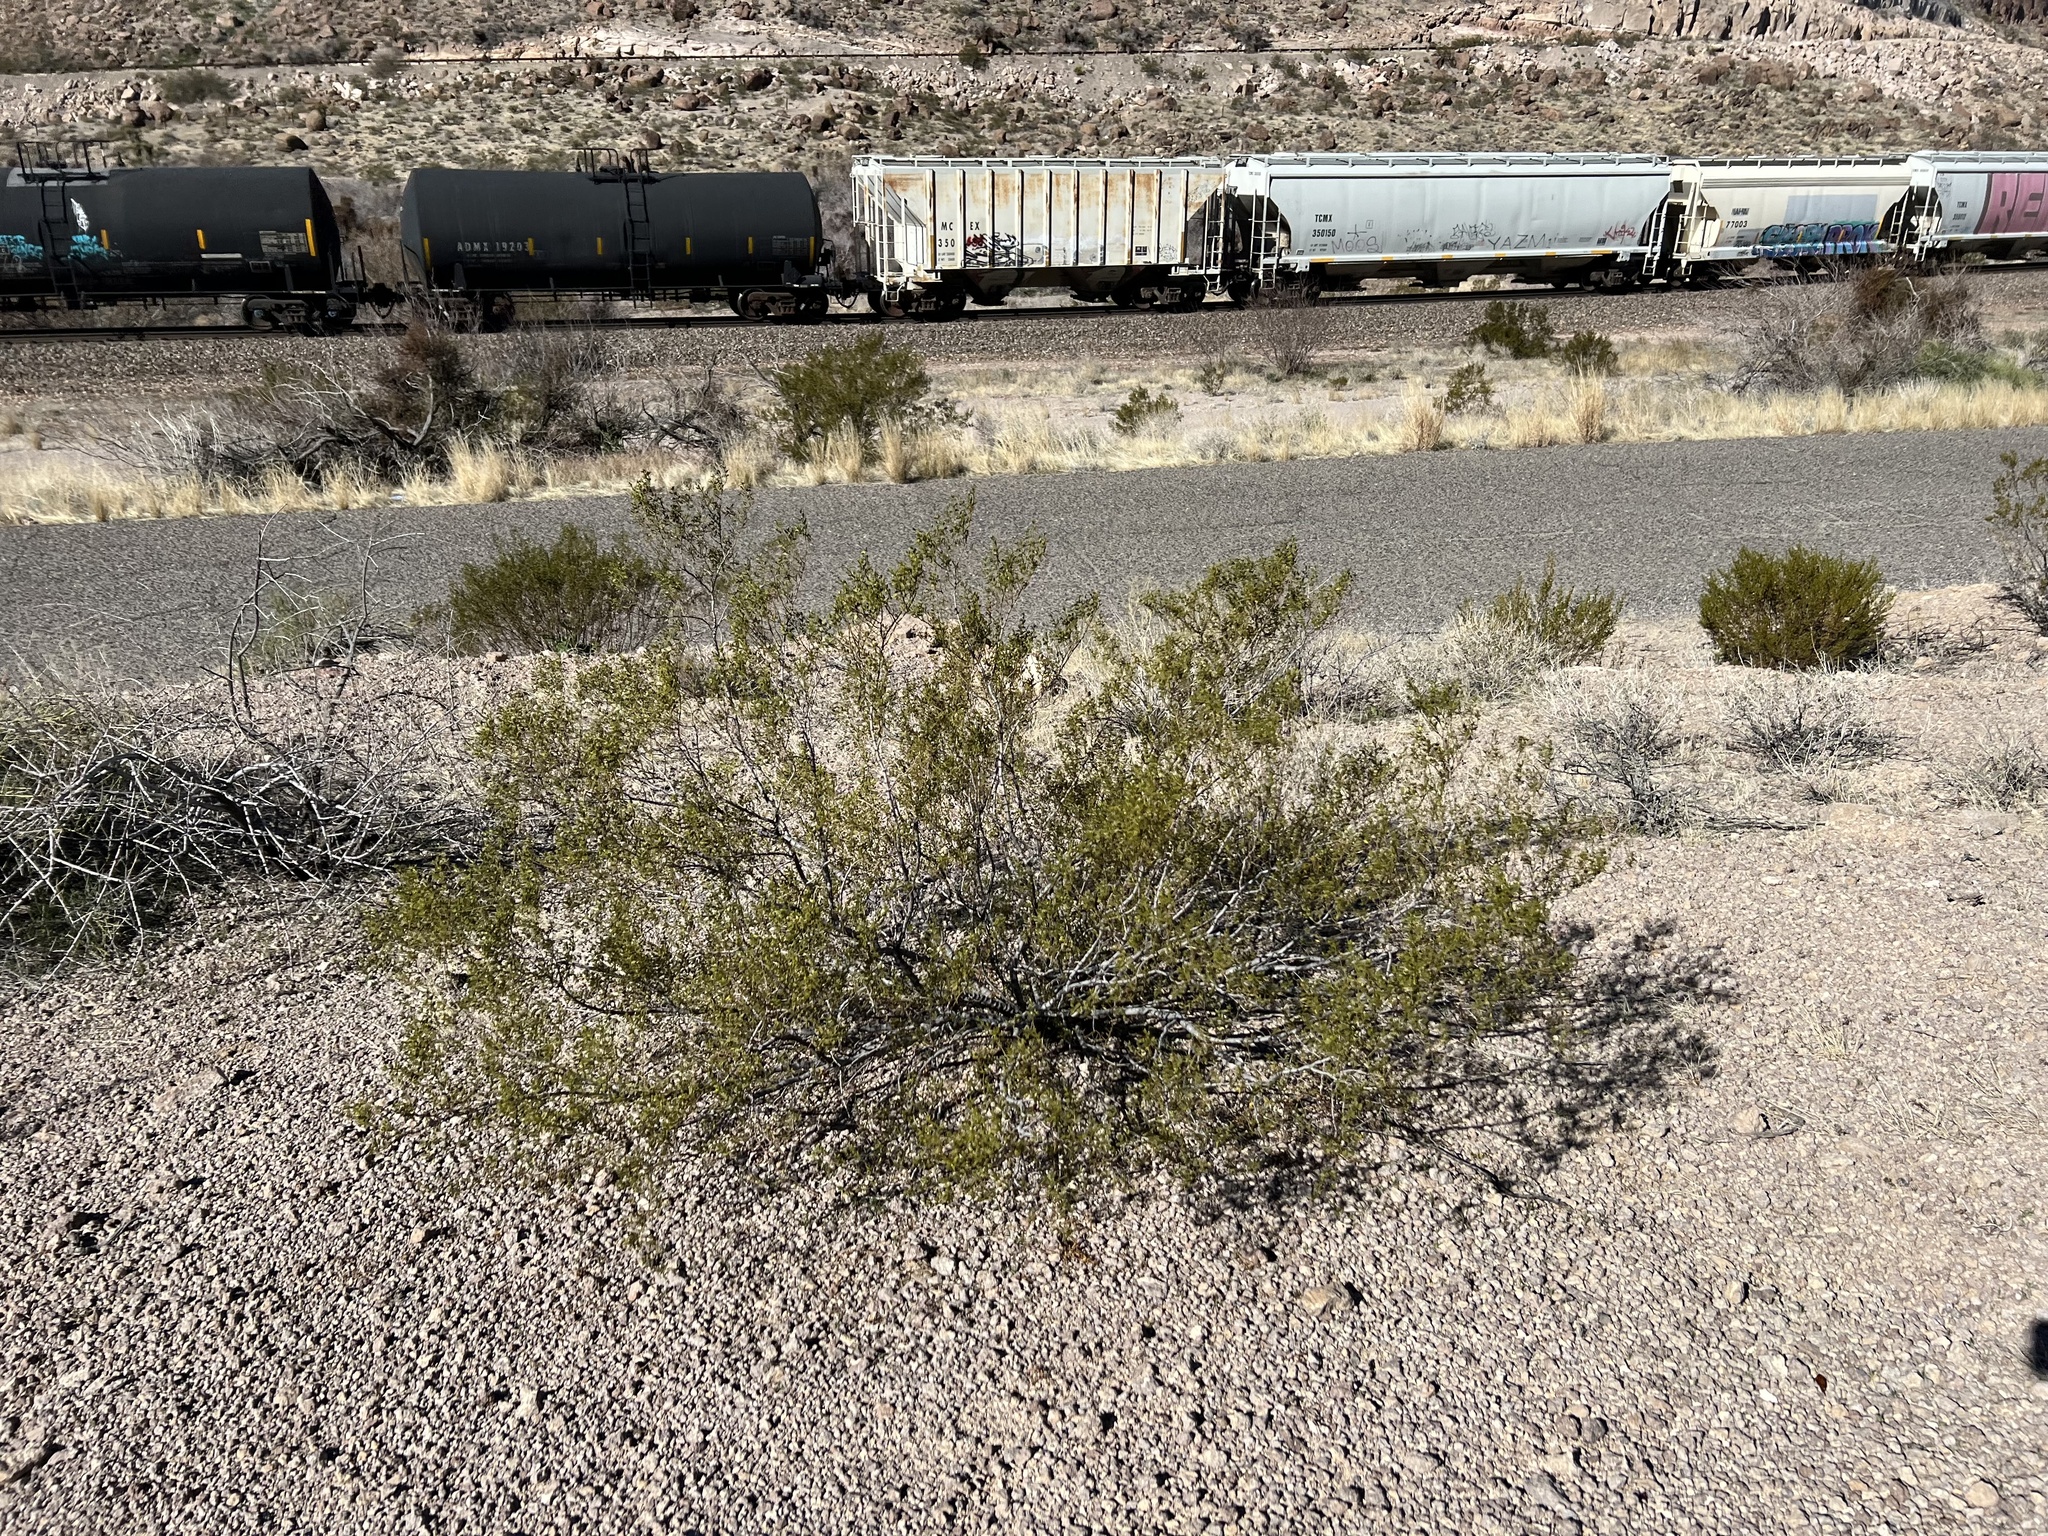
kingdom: Plantae
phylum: Tracheophyta
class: Magnoliopsida
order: Zygophyllales
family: Zygophyllaceae
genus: Larrea
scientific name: Larrea tridentata
